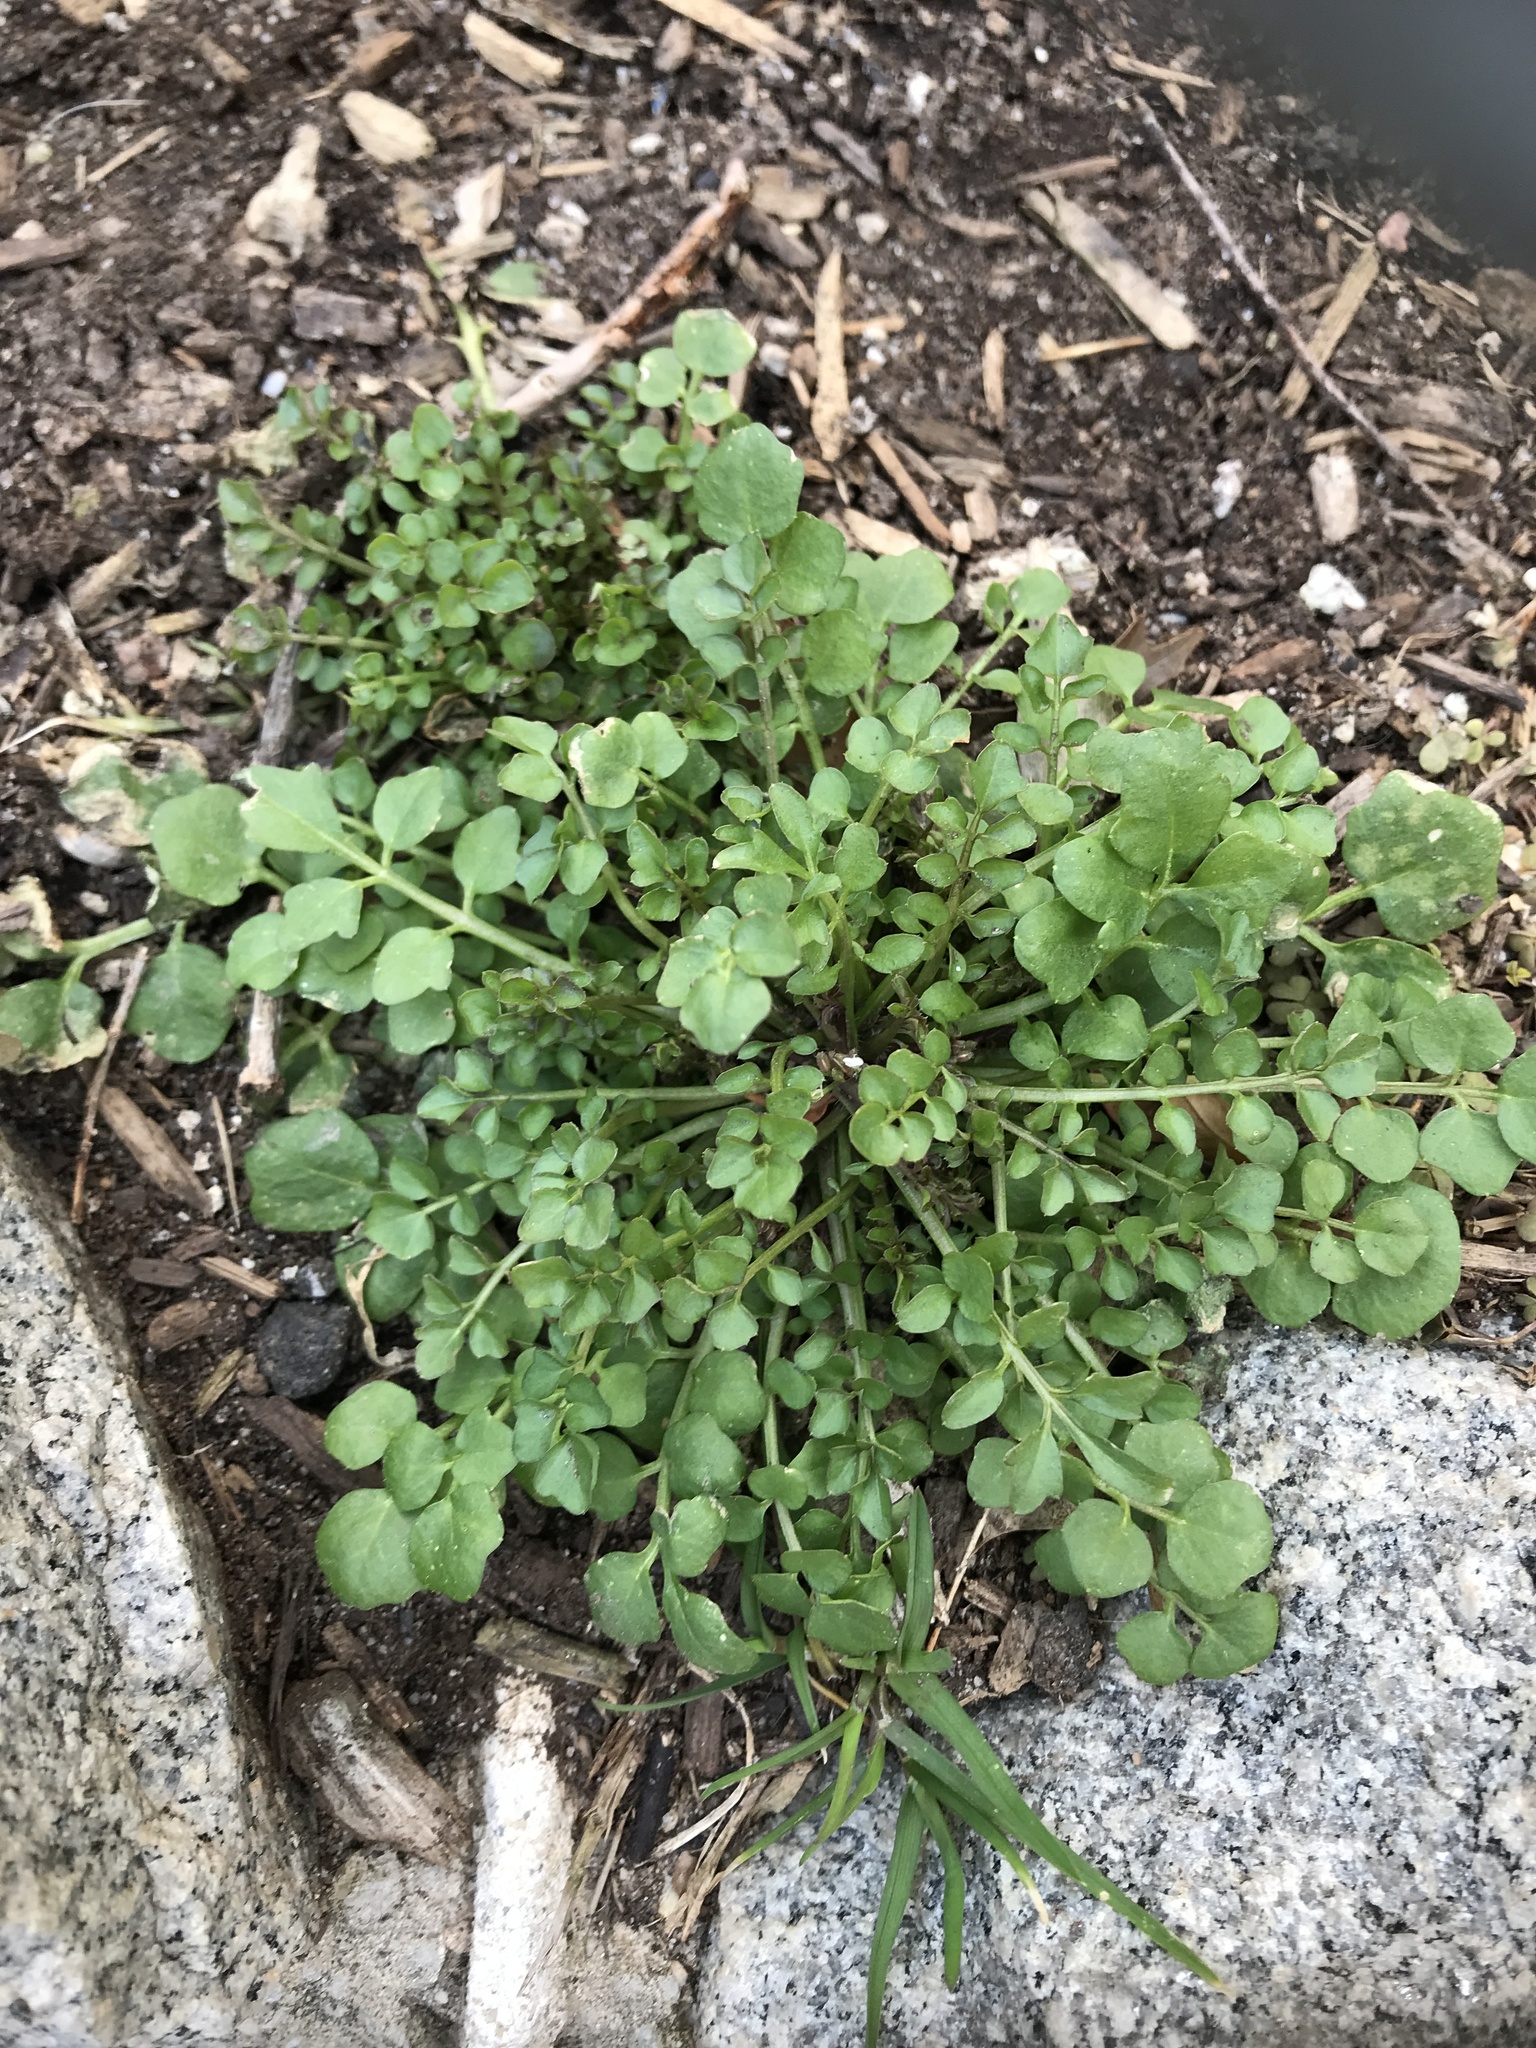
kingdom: Plantae
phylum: Tracheophyta
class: Magnoliopsida
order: Brassicales
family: Brassicaceae
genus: Cardamine
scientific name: Cardamine hirsuta
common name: Hairy bittercress
